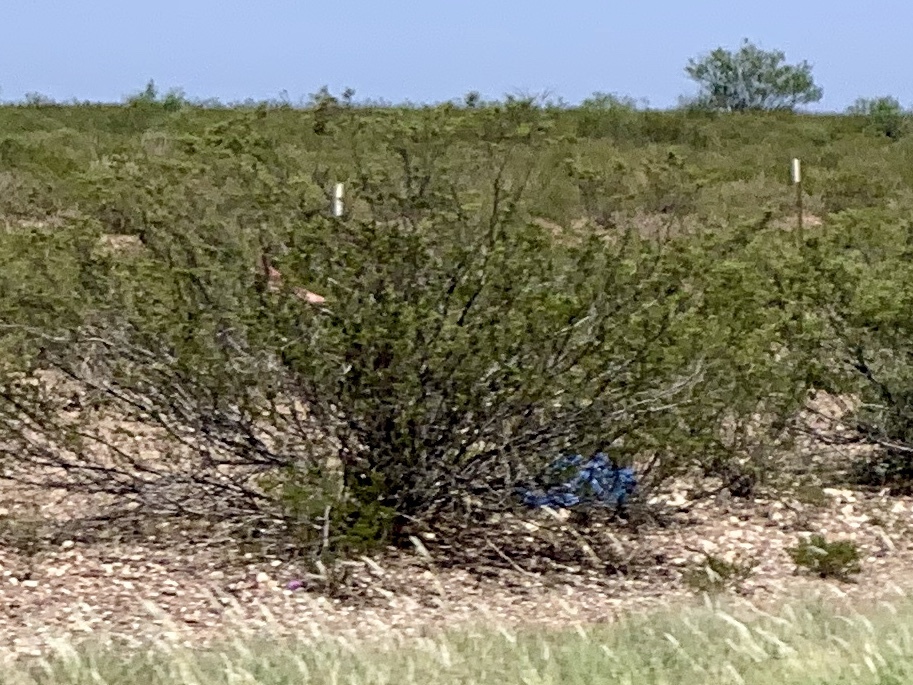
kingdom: Plantae
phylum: Tracheophyta
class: Magnoliopsida
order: Zygophyllales
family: Zygophyllaceae
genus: Larrea
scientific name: Larrea tridentata
